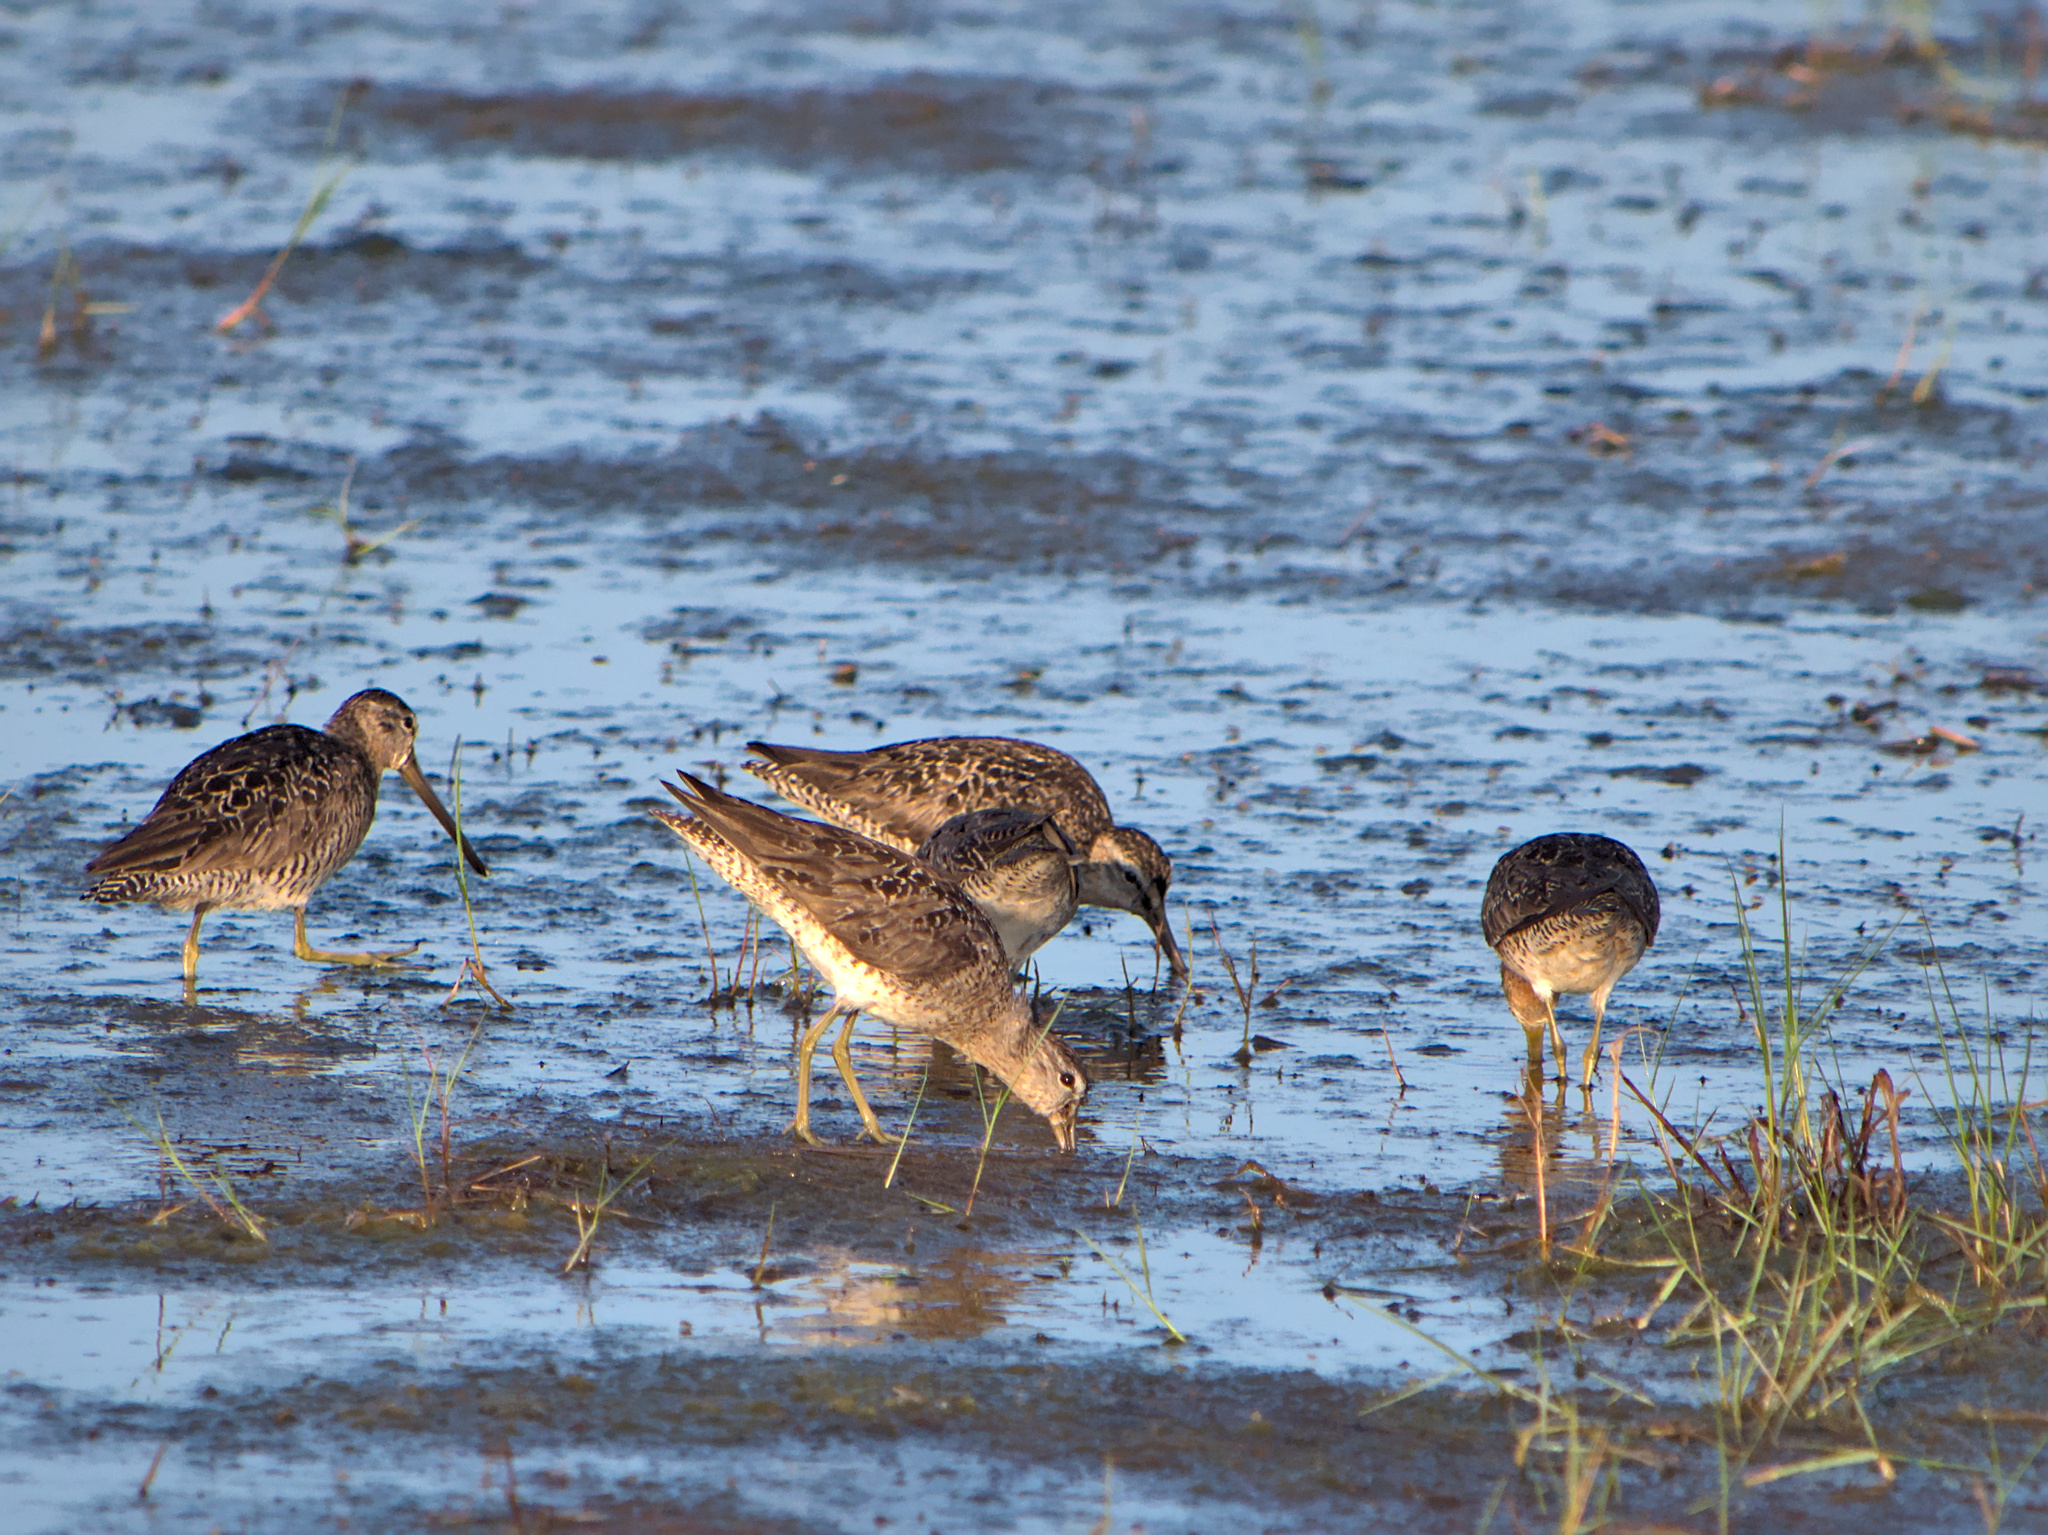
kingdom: Animalia
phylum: Chordata
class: Aves
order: Charadriiformes
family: Scolopacidae
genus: Limnodromus
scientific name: Limnodromus griseus
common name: Short-billed dowitcher
